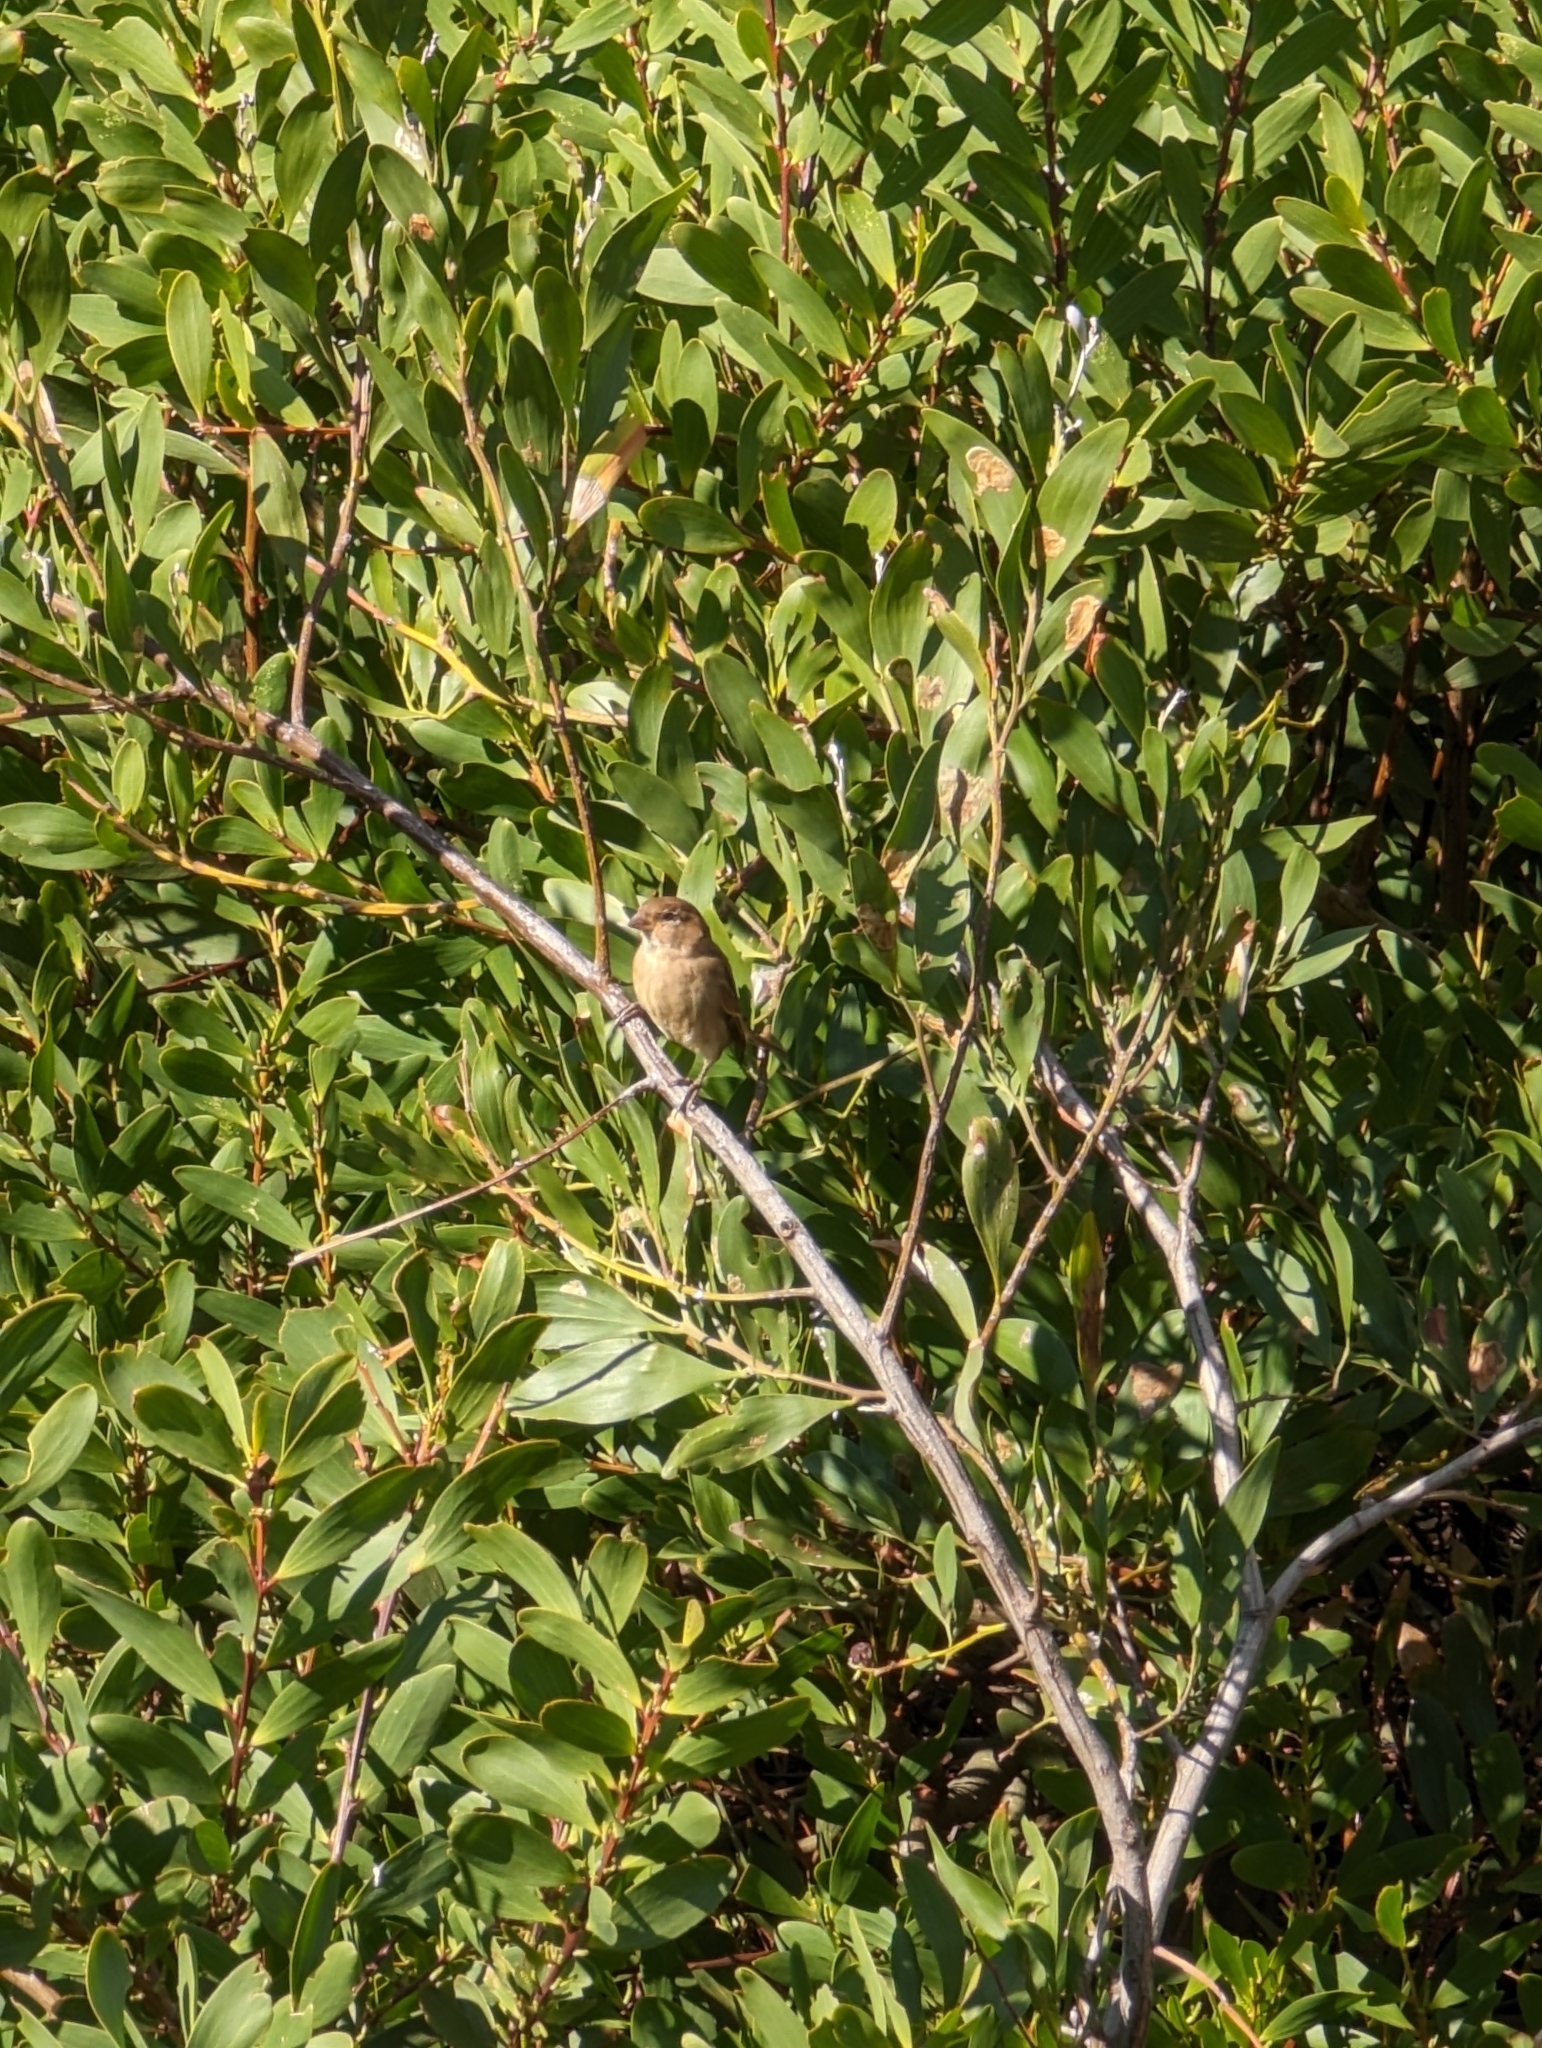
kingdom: Animalia
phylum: Chordata
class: Aves
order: Passeriformes
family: Passeridae
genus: Passer
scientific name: Passer domesticus
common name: House sparrow
